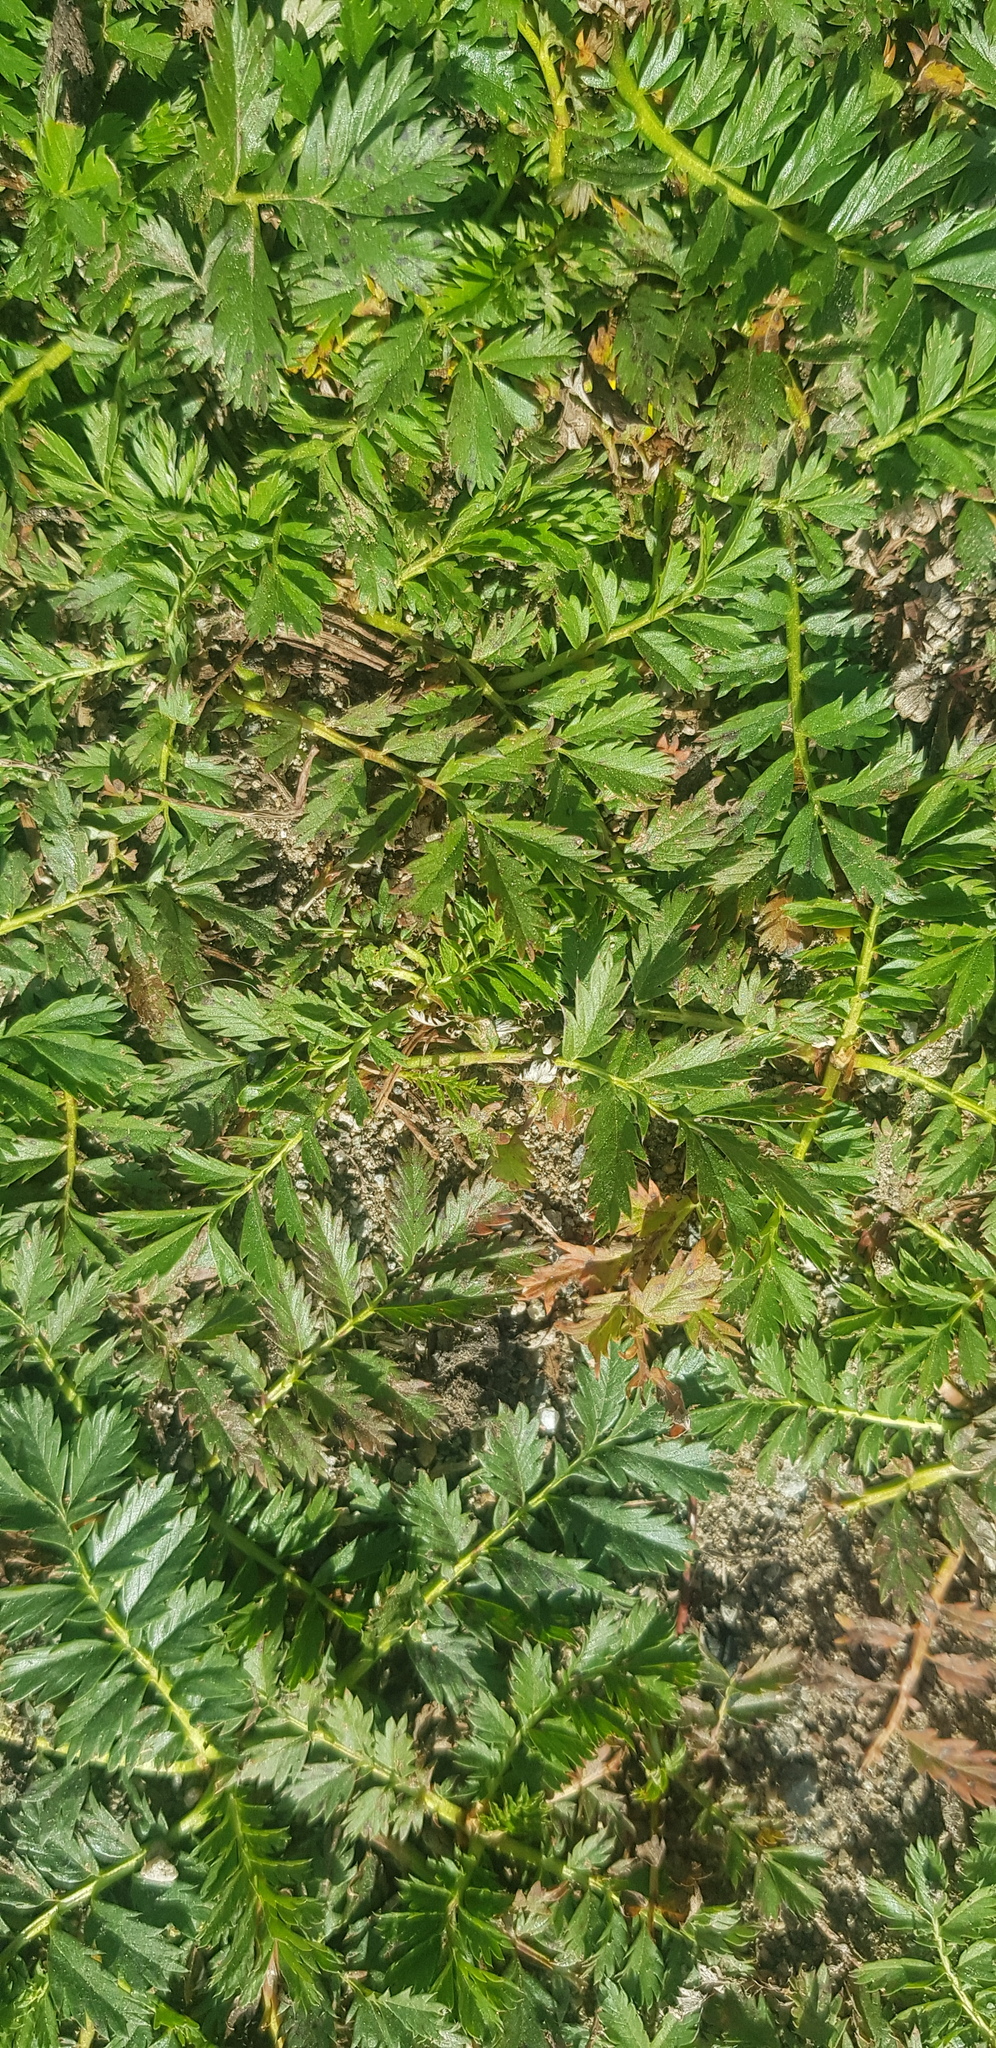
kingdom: Plantae
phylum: Tracheophyta
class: Magnoliopsida
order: Rosales
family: Rosaceae
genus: Argentina
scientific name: Argentina anserina
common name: Common silverweed
